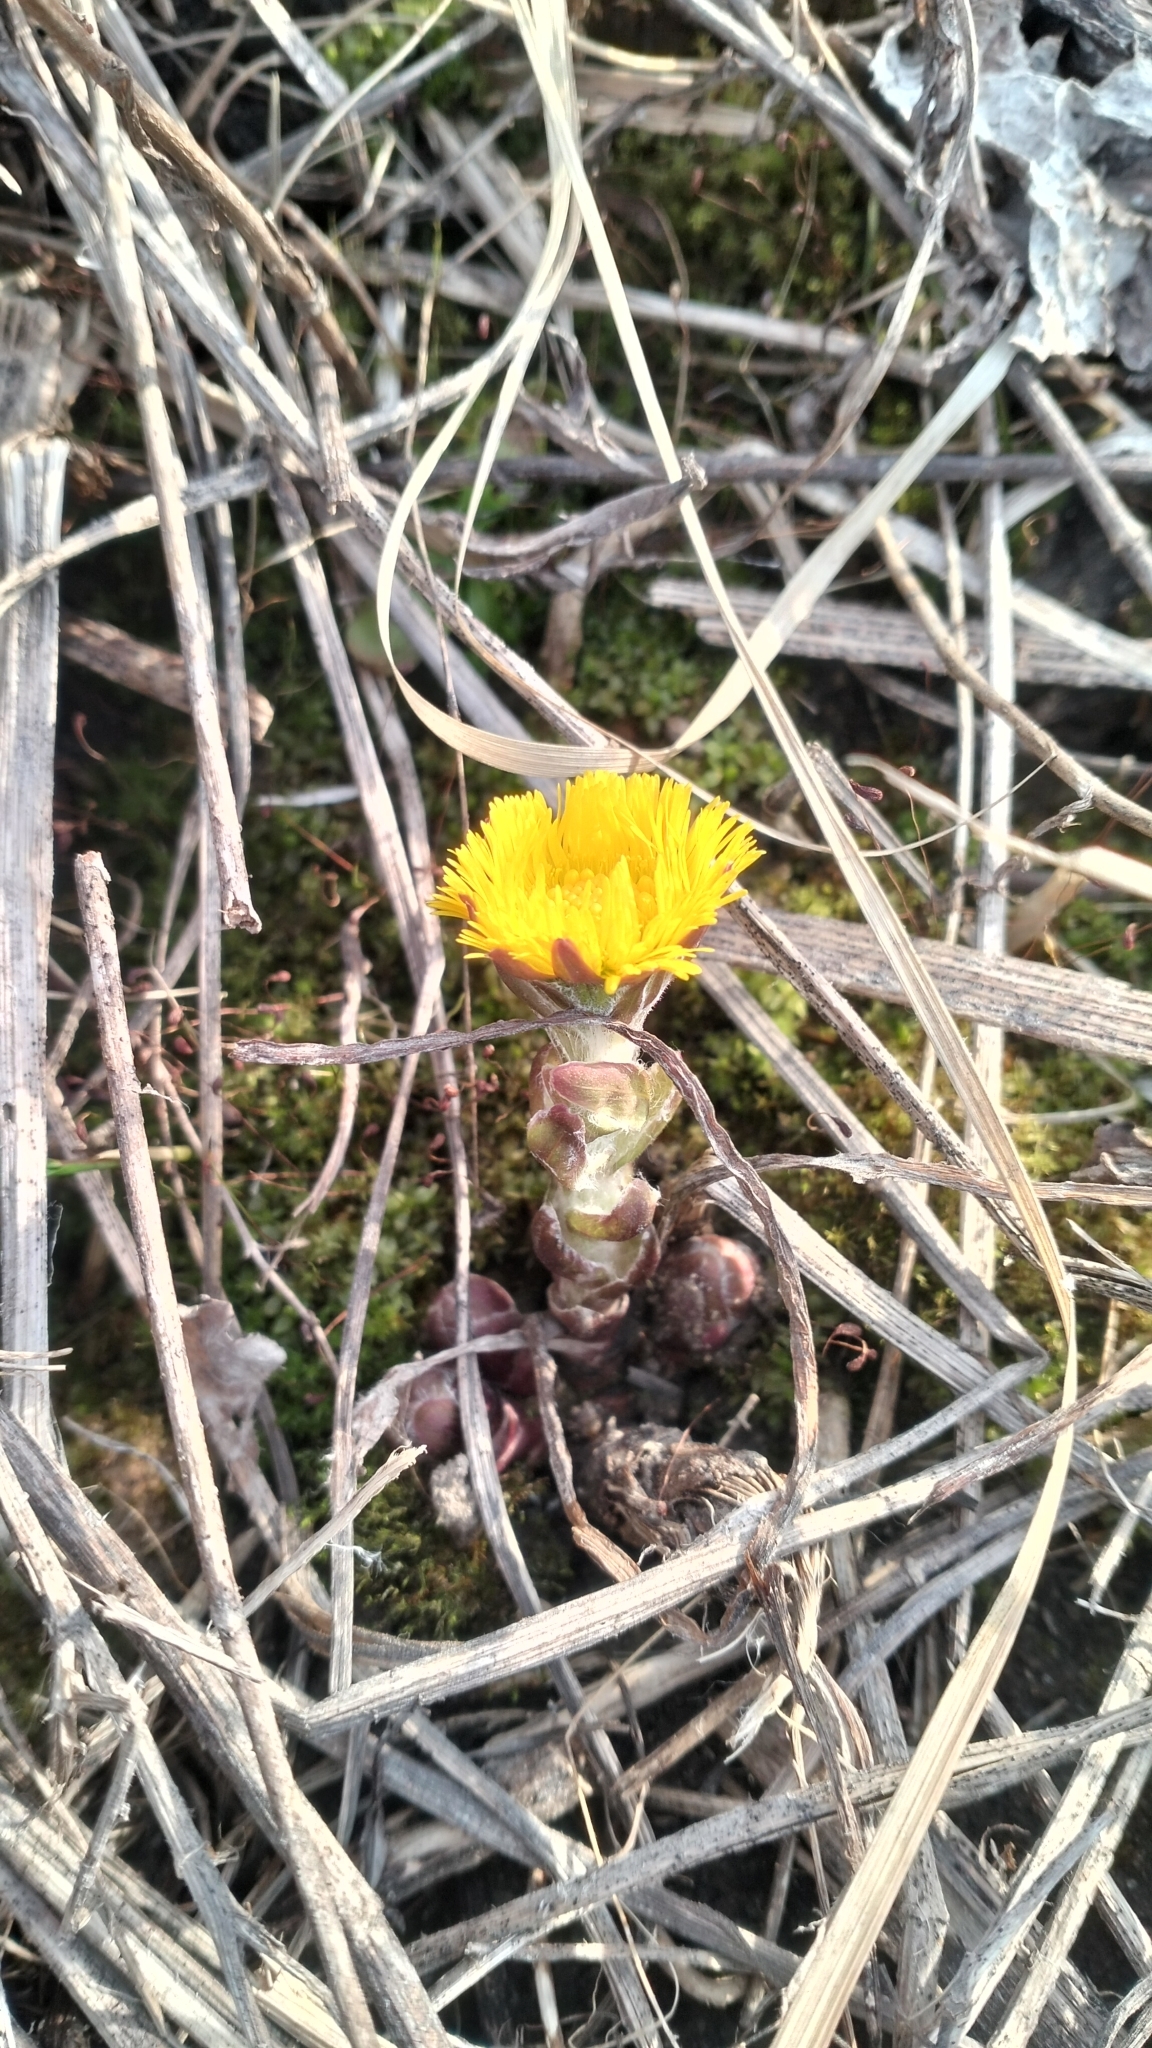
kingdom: Plantae
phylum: Tracheophyta
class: Magnoliopsida
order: Asterales
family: Asteraceae
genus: Tussilago
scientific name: Tussilago farfara
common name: Coltsfoot
